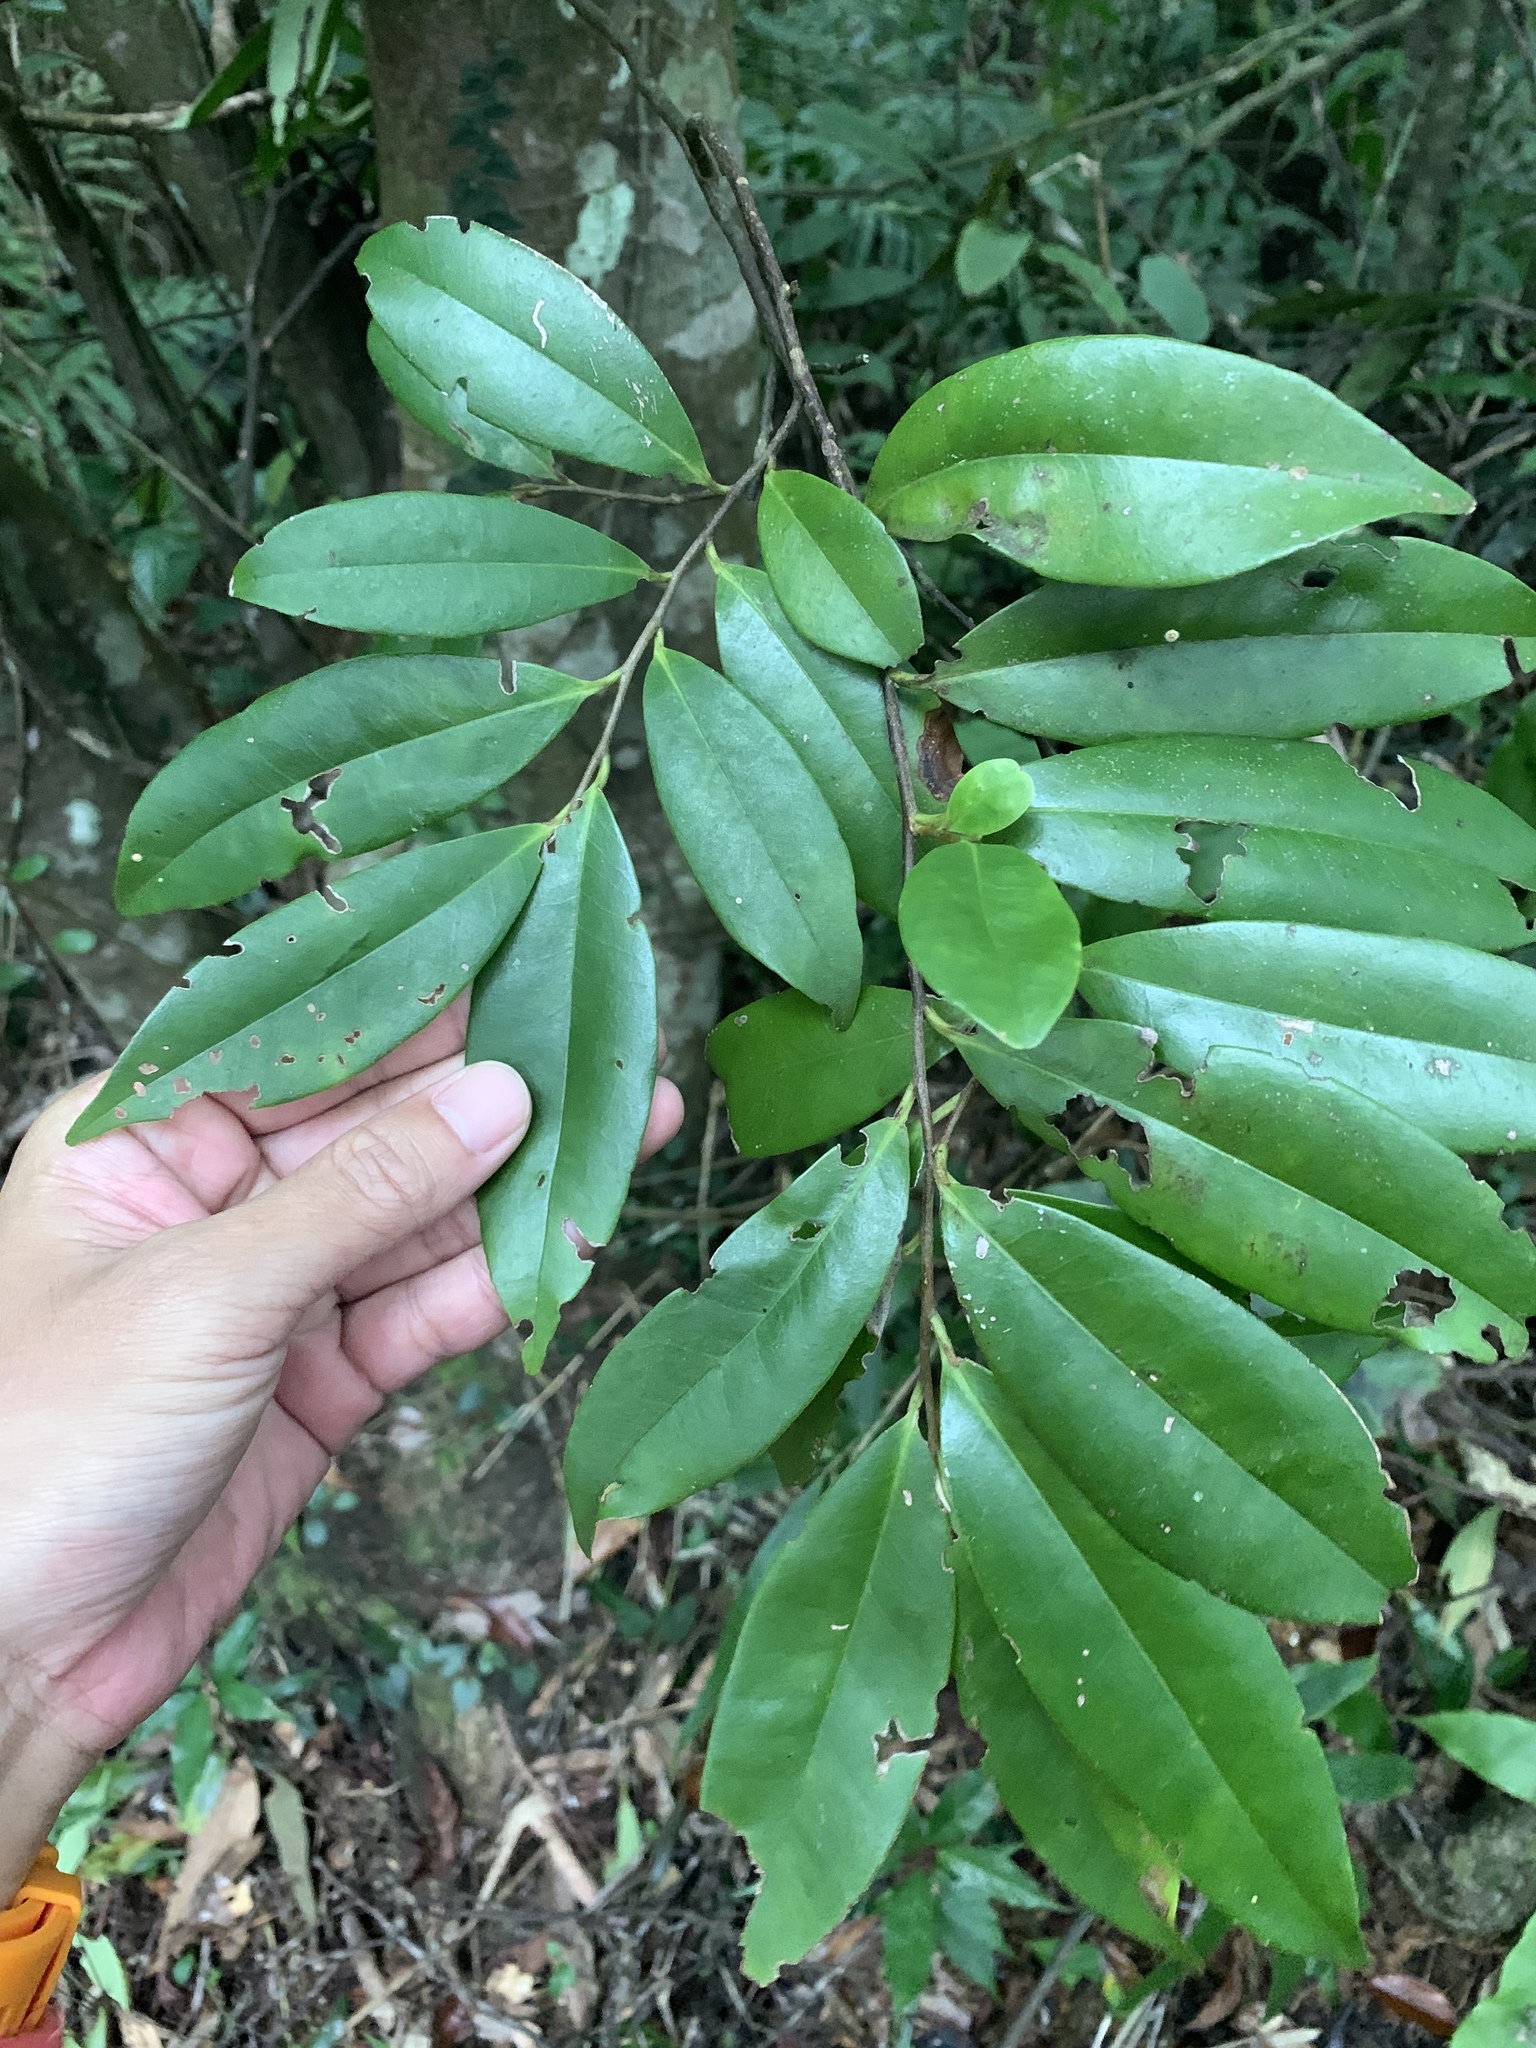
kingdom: Plantae
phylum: Tracheophyta
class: Magnoliopsida
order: Ericales
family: Pentaphylacaceae
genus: Adinandra
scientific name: Adinandra formosana
